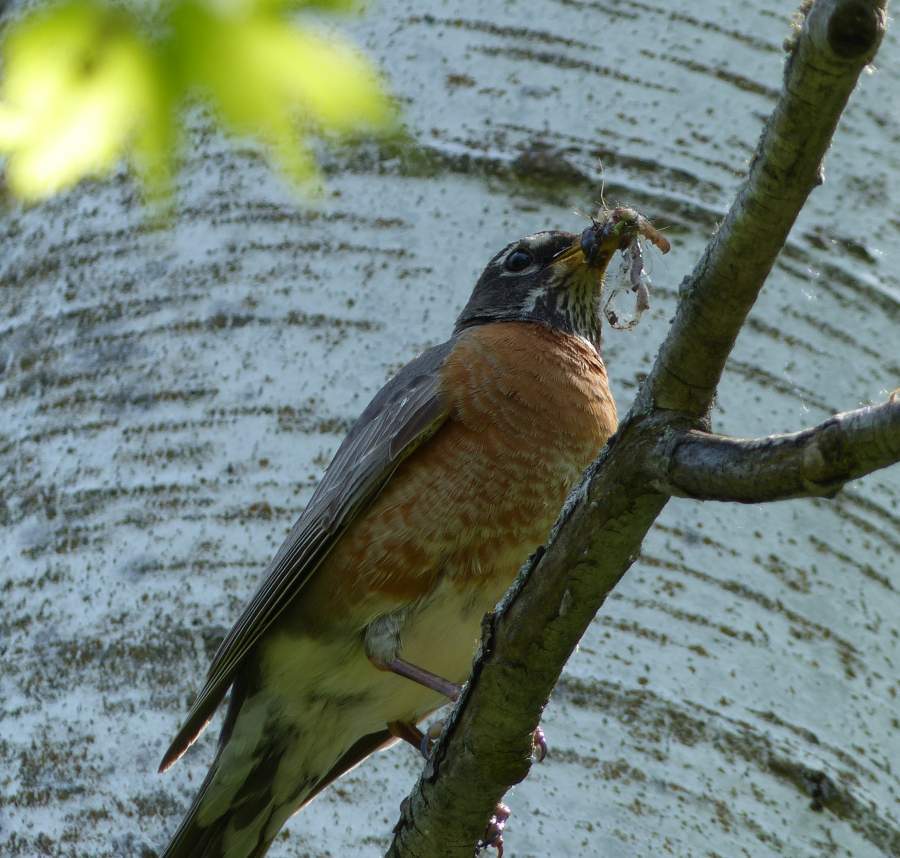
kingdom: Animalia
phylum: Chordata
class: Aves
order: Passeriformes
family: Turdidae
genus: Turdus
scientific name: Turdus migratorius
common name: American robin
